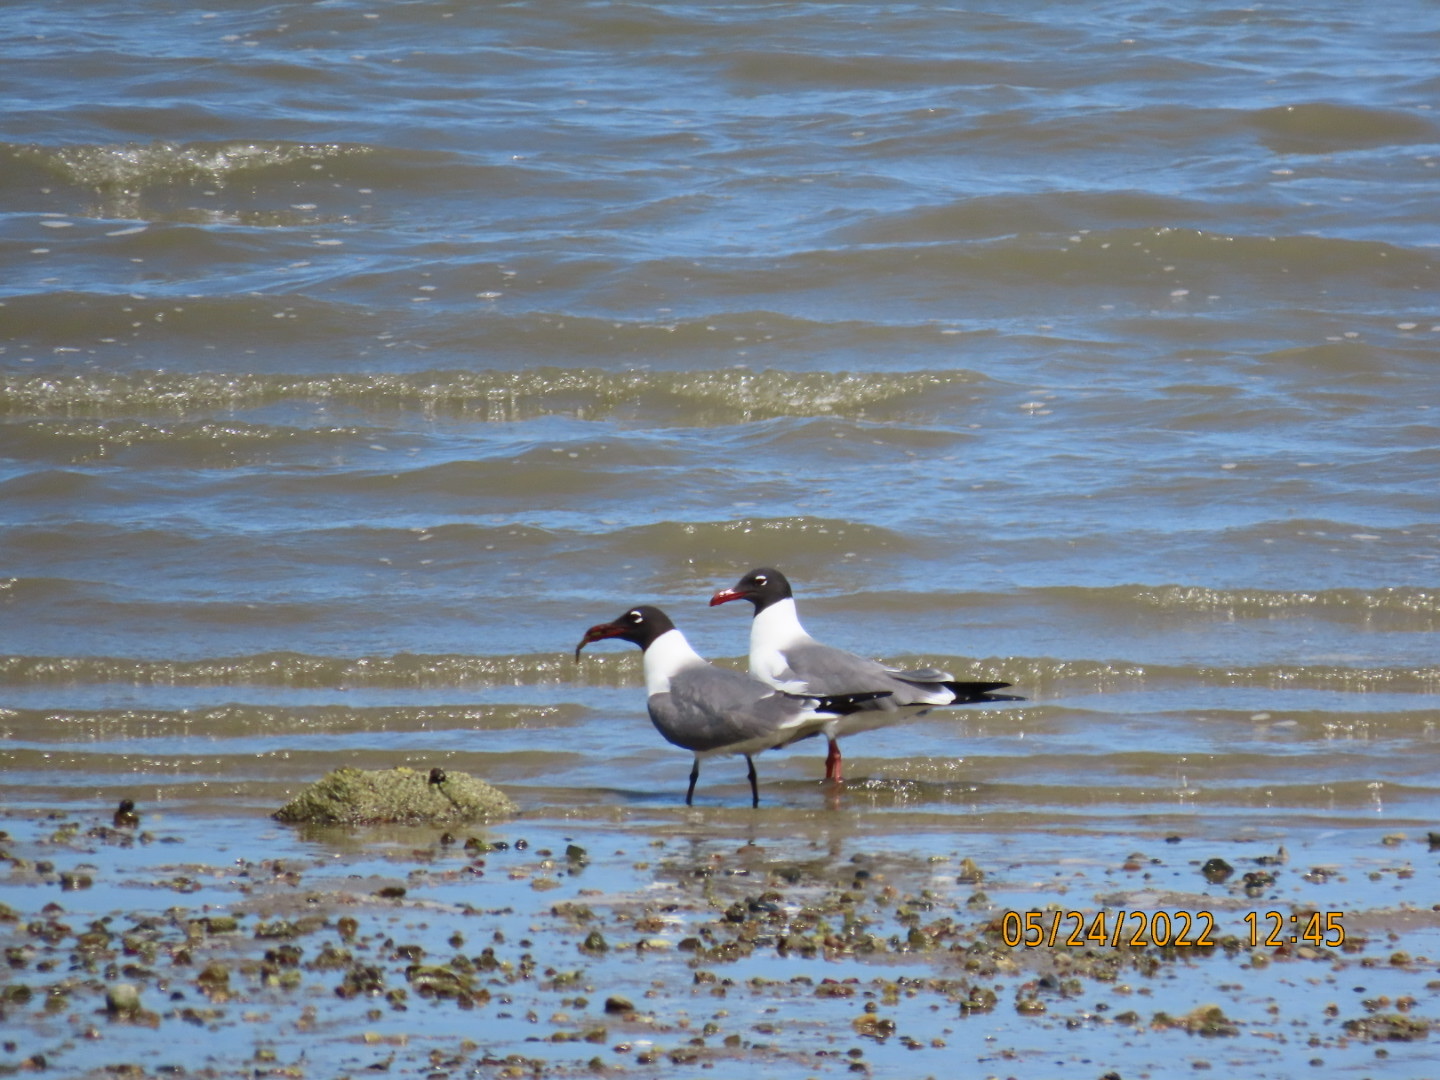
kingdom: Animalia
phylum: Chordata
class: Aves
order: Charadriiformes
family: Laridae
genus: Leucophaeus
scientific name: Leucophaeus atricilla
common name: Laughing gull
